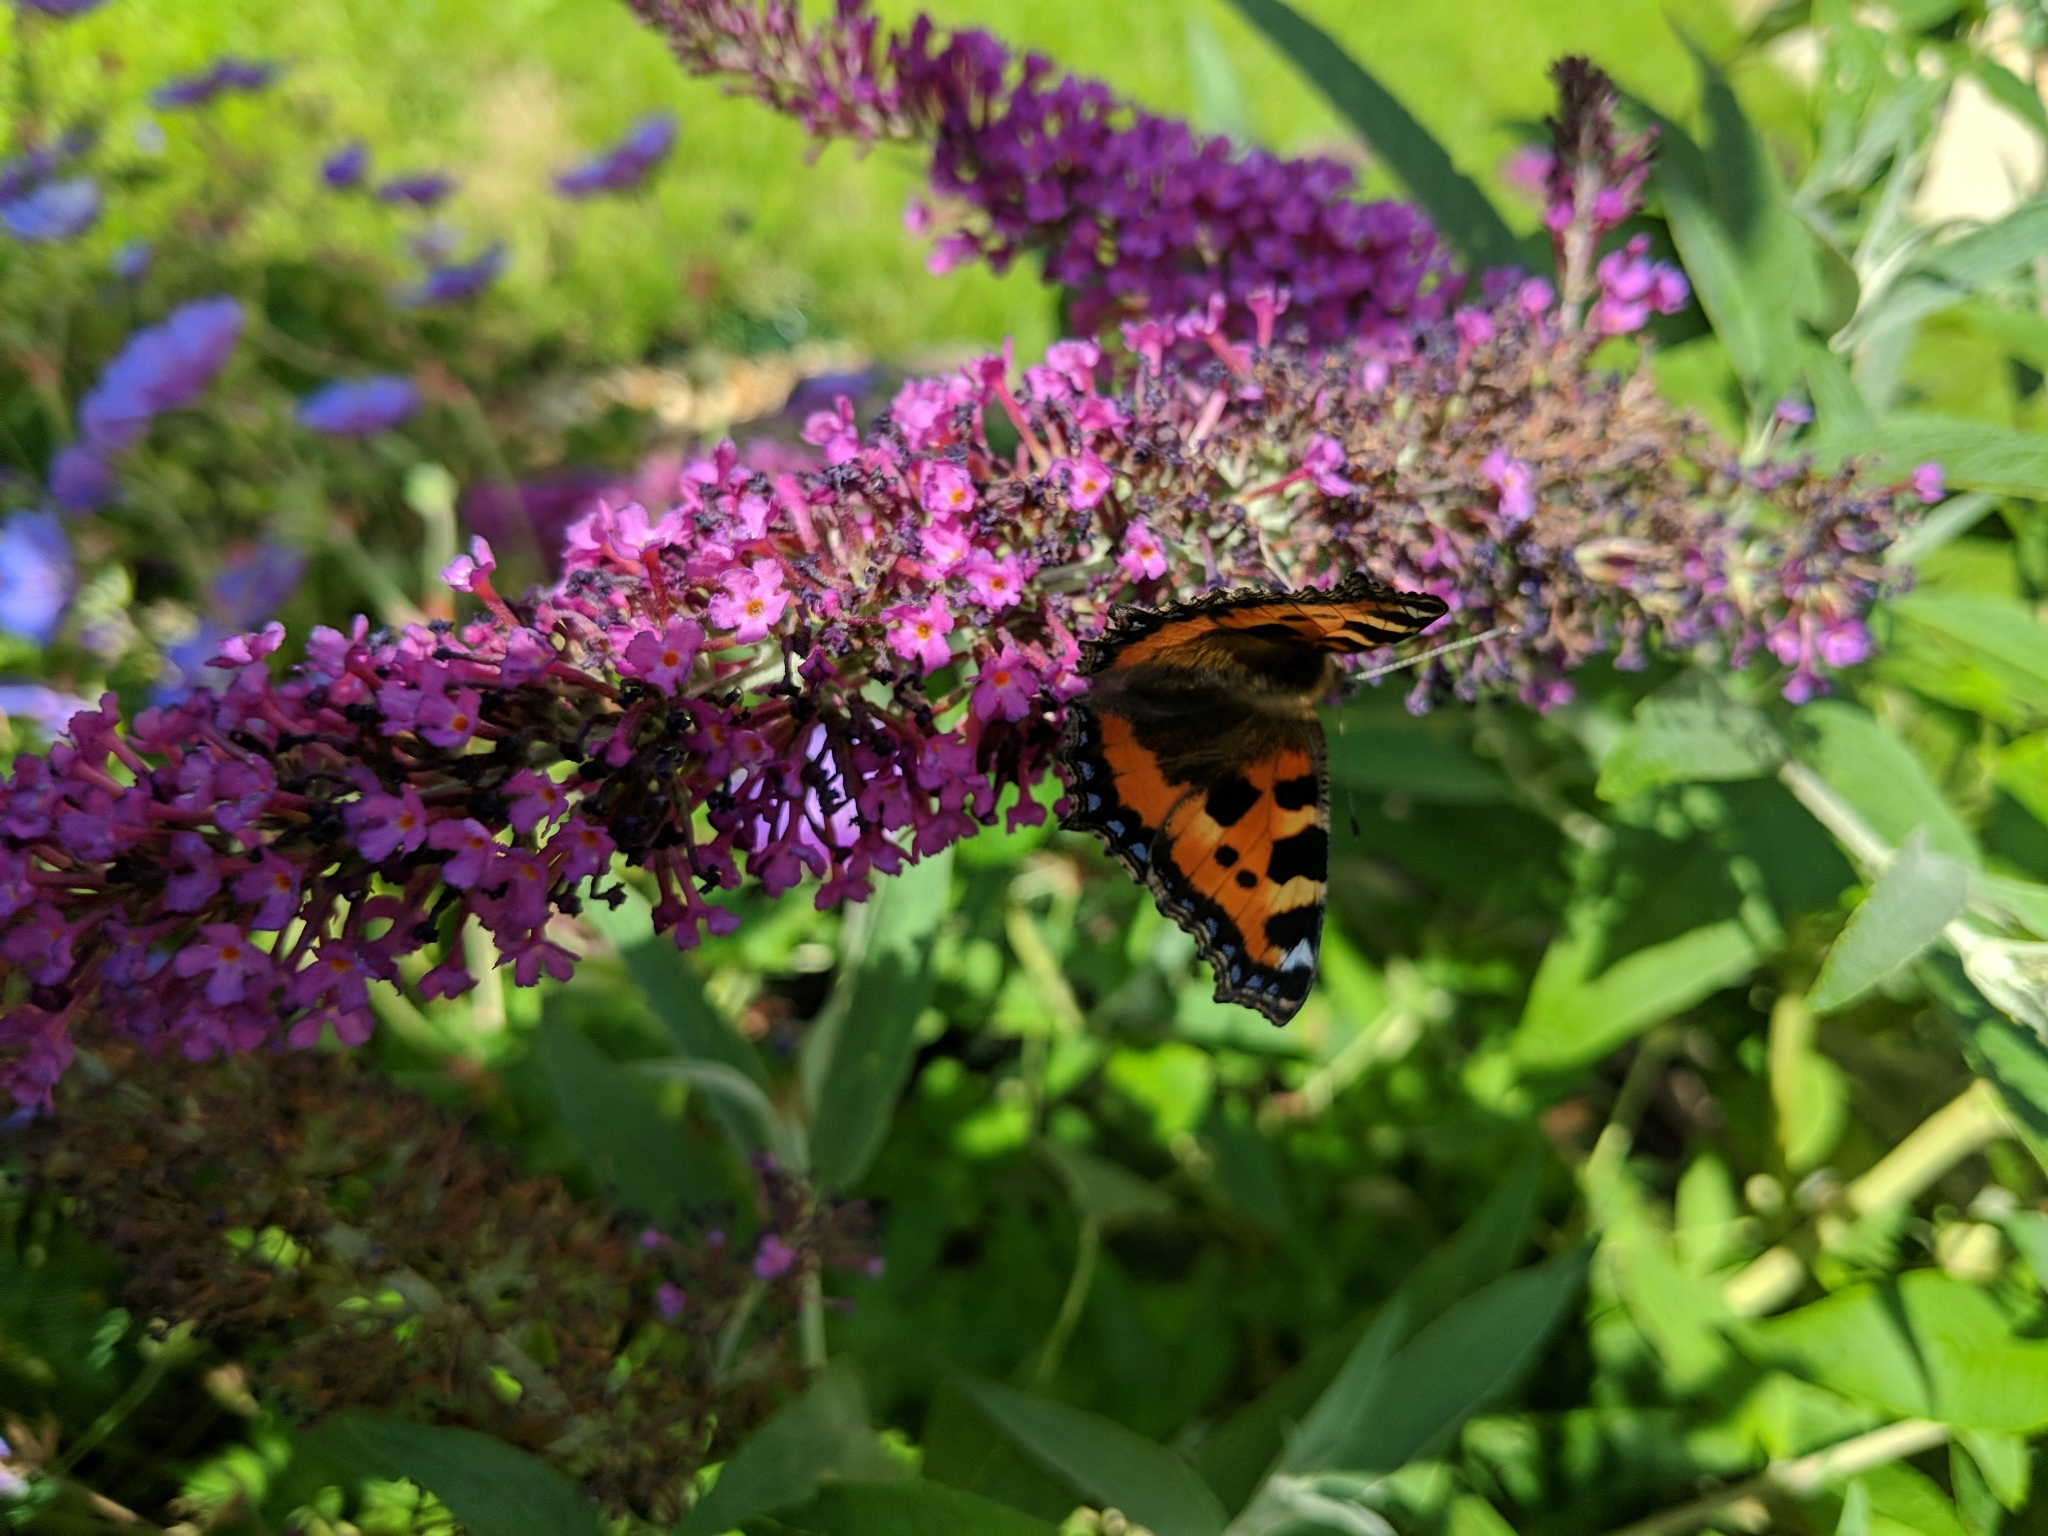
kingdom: Animalia
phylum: Arthropoda
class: Insecta
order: Lepidoptera
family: Nymphalidae
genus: Aglais
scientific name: Aglais urticae
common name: Small tortoiseshell
